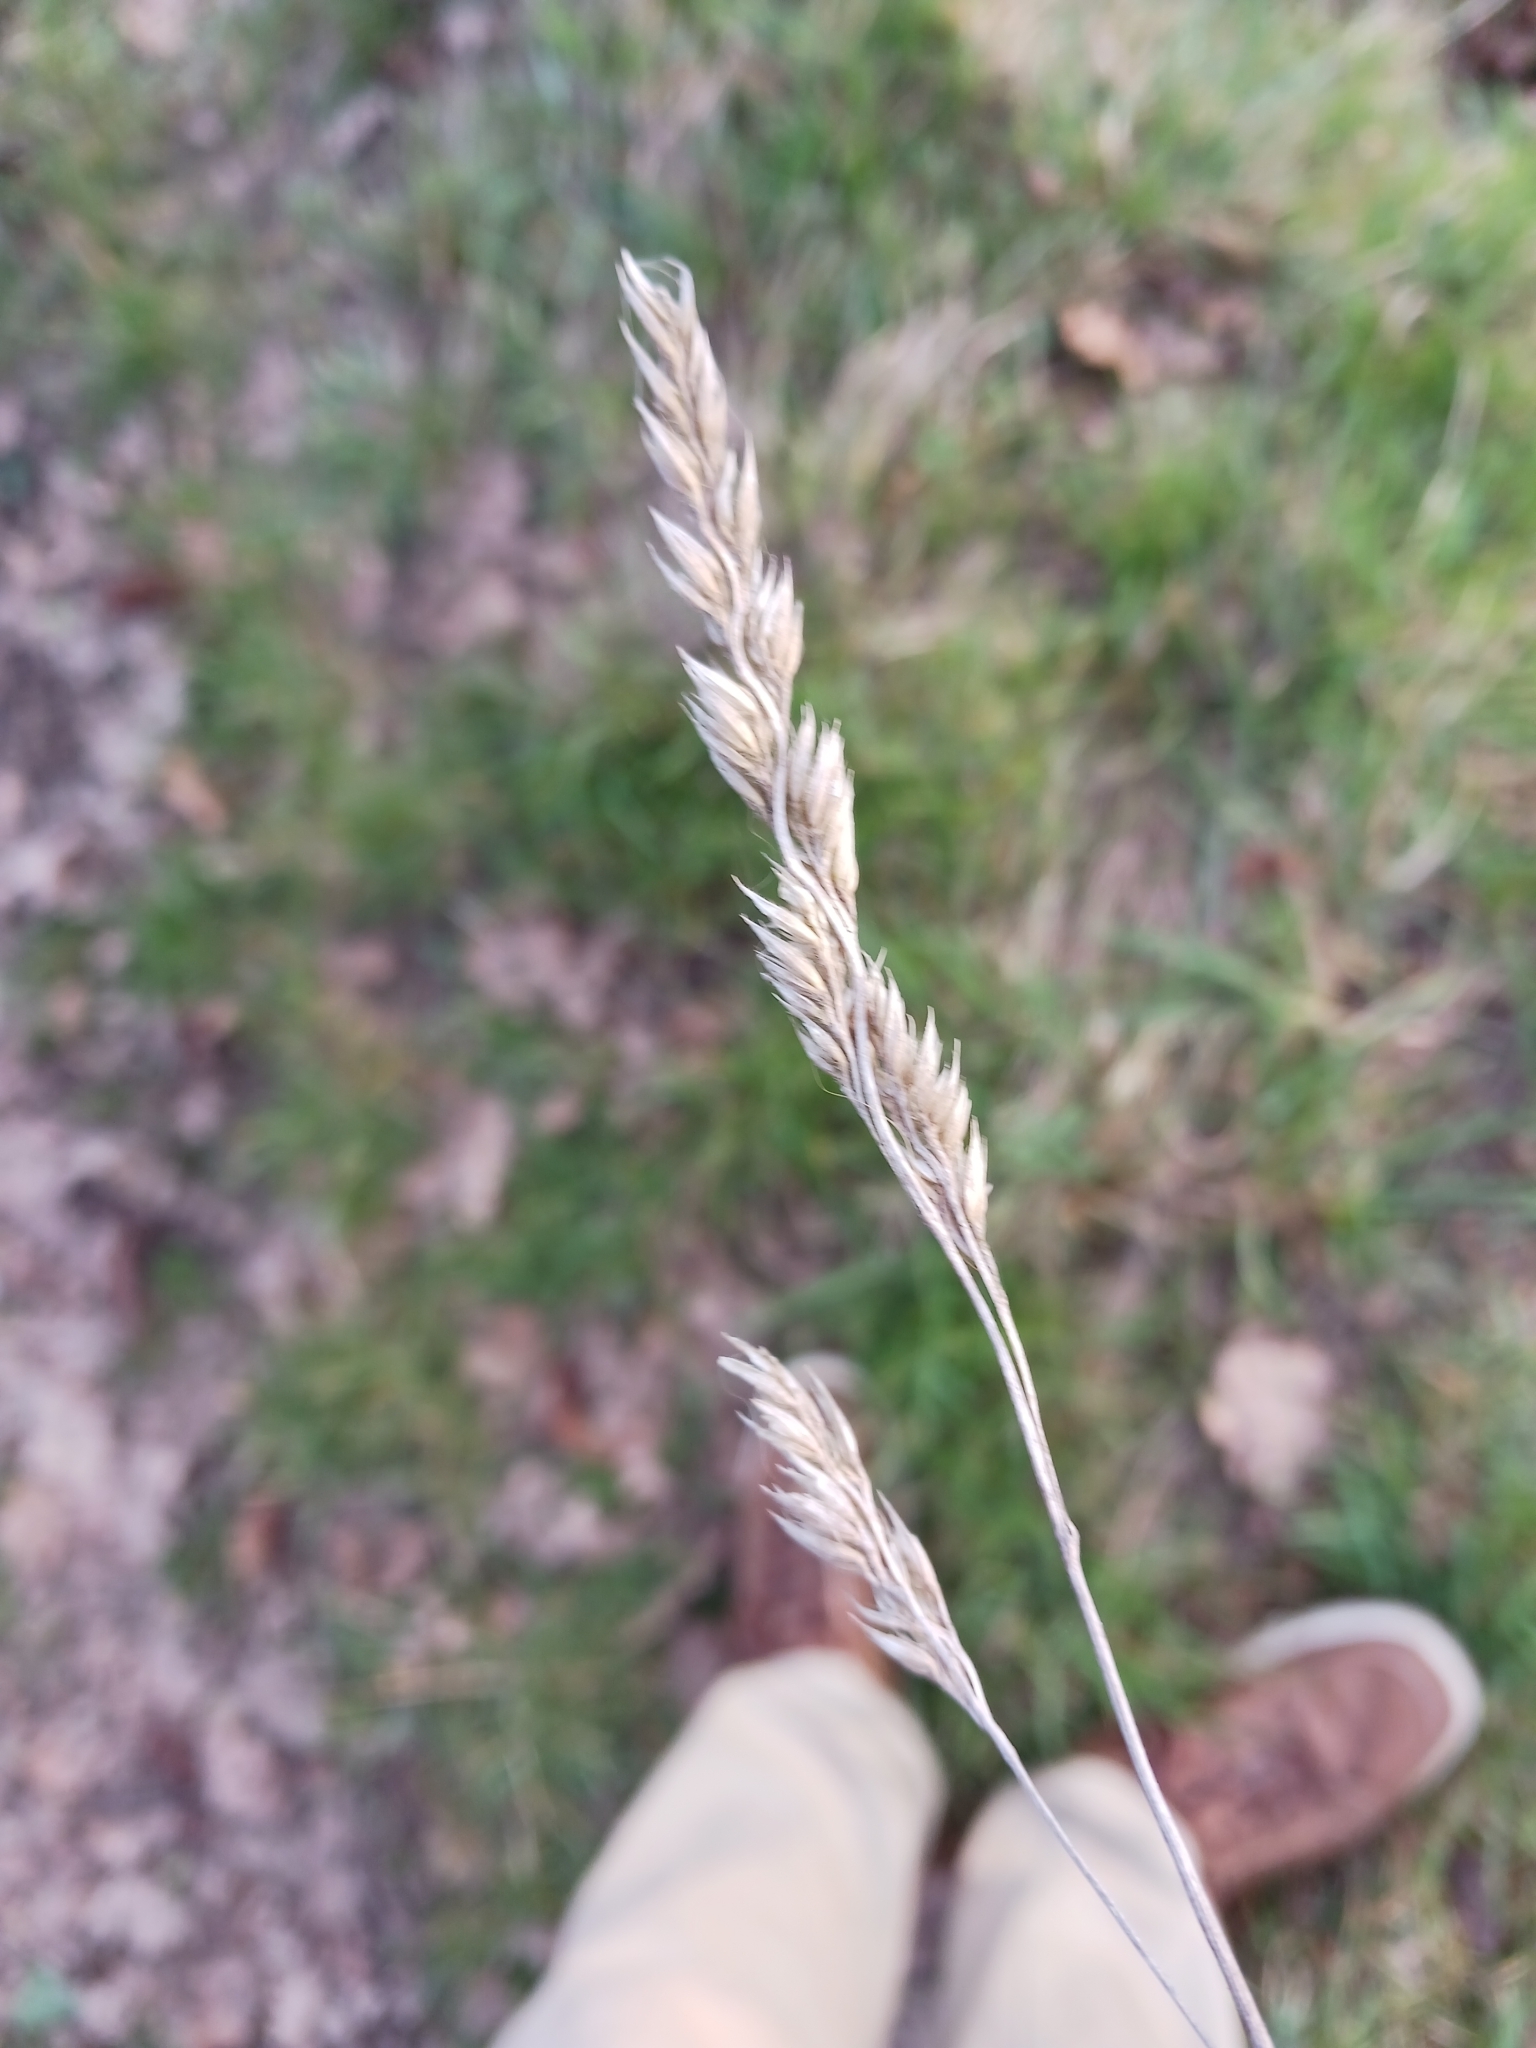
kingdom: Plantae
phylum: Tracheophyta
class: Liliopsida
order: Poales
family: Poaceae
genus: Dactylis
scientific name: Dactylis glomerata
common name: Orchardgrass
